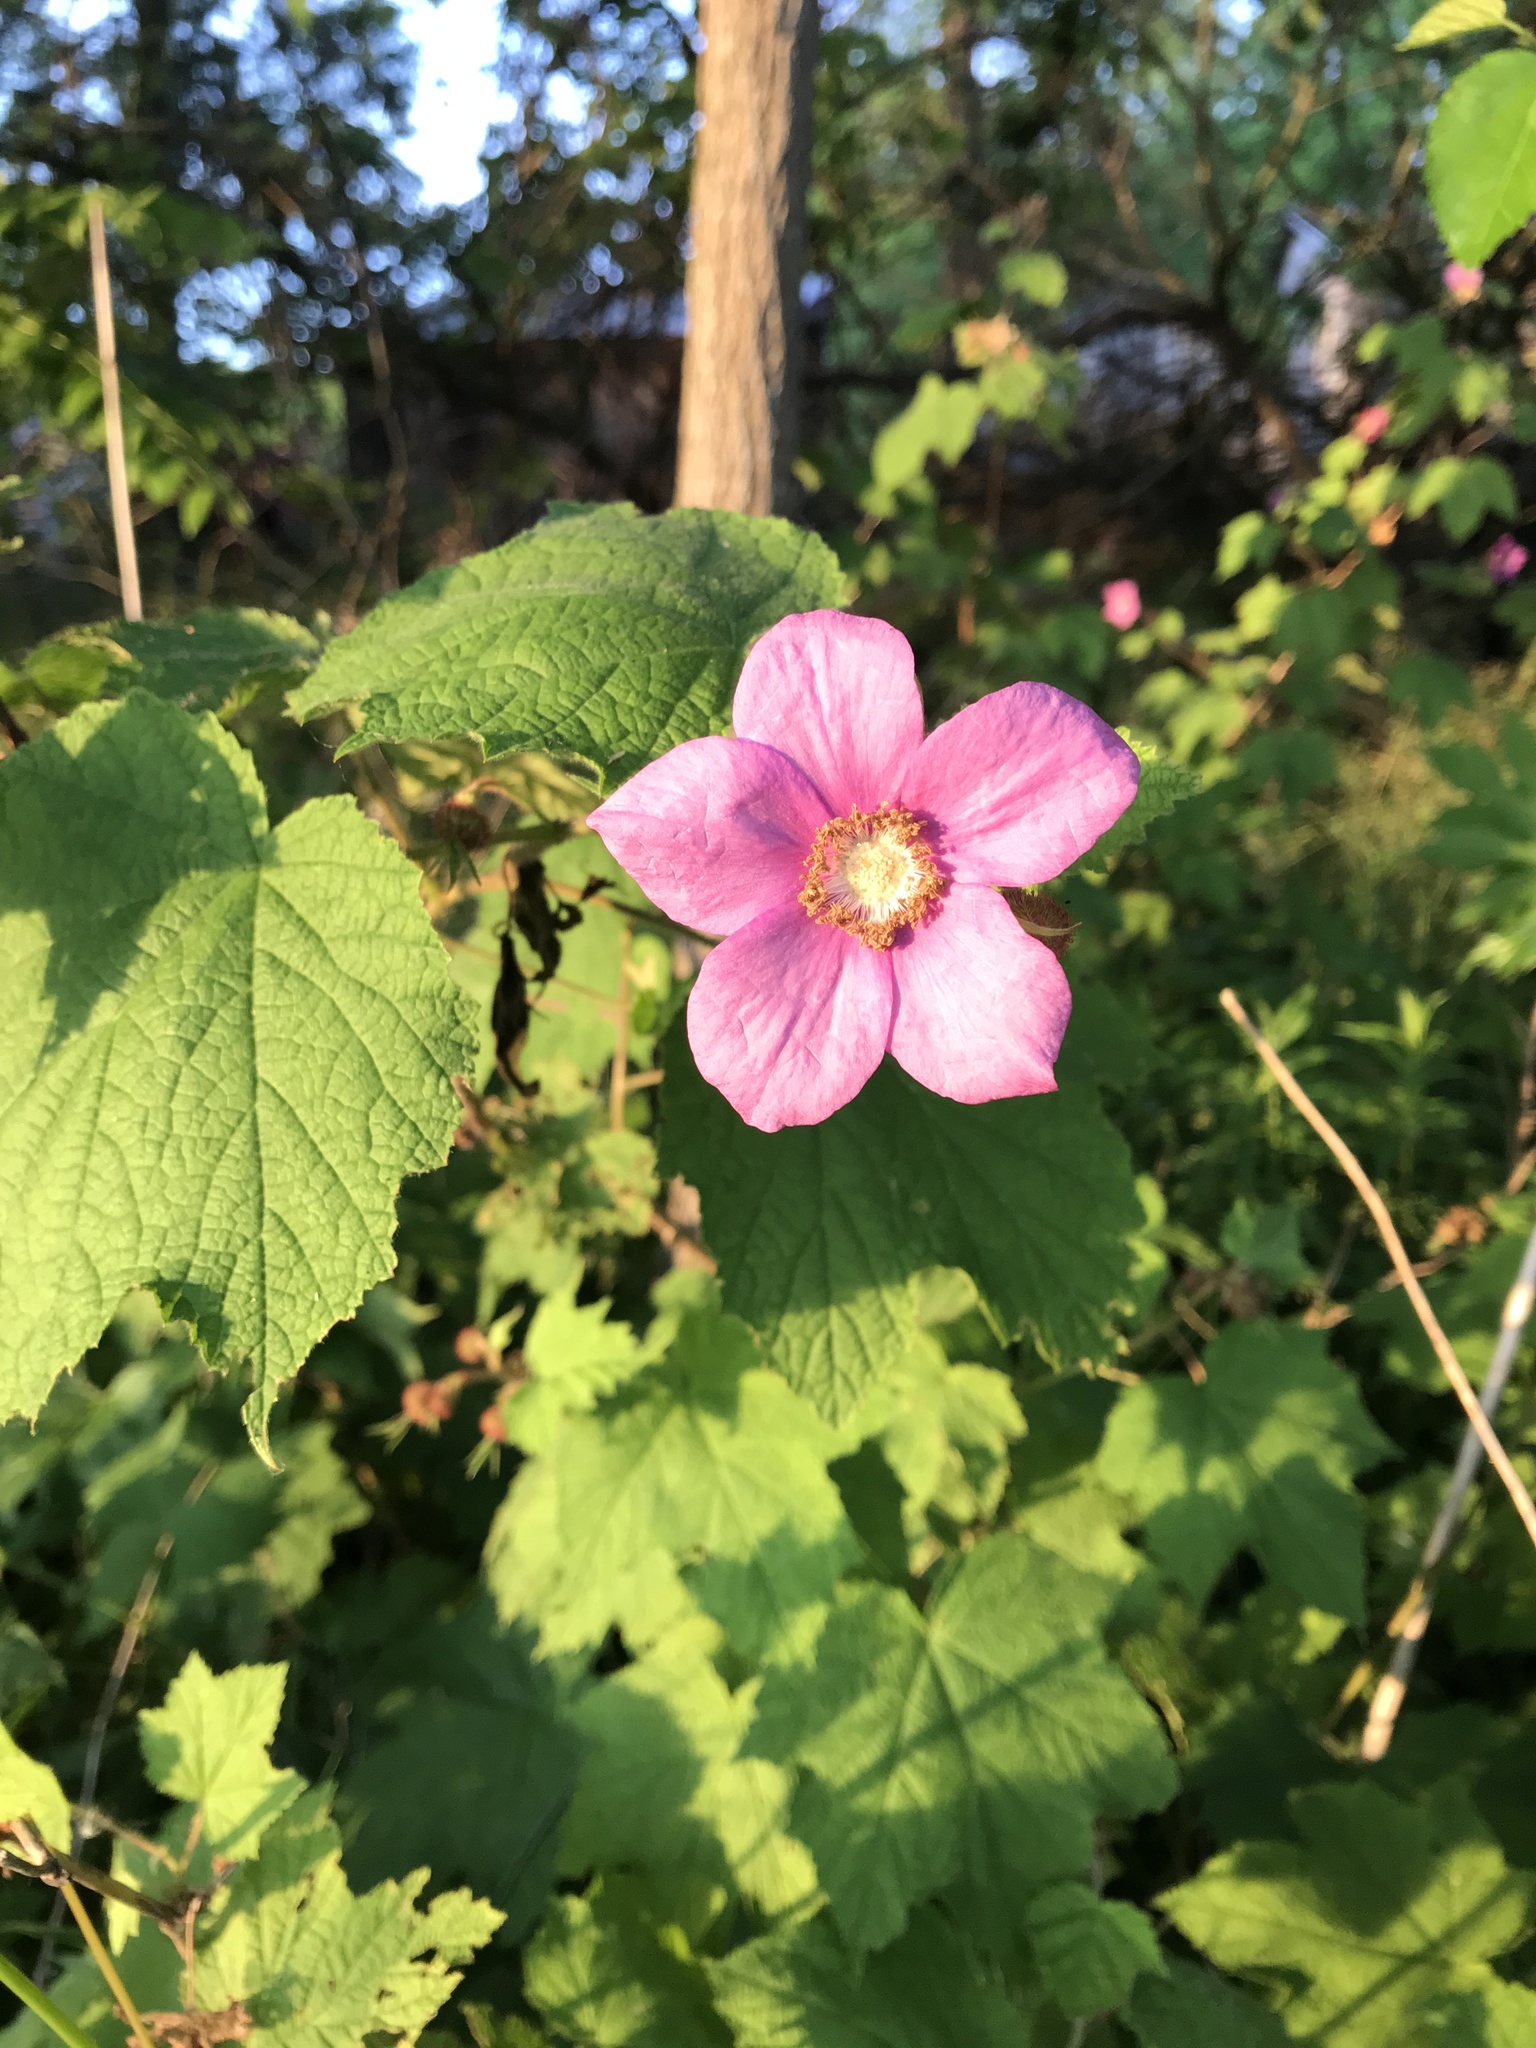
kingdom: Plantae
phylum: Tracheophyta
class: Magnoliopsida
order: Rosales
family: Rosaceae
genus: Rubus
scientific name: Rubus odoratus
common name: Purple-flowered raspberry
